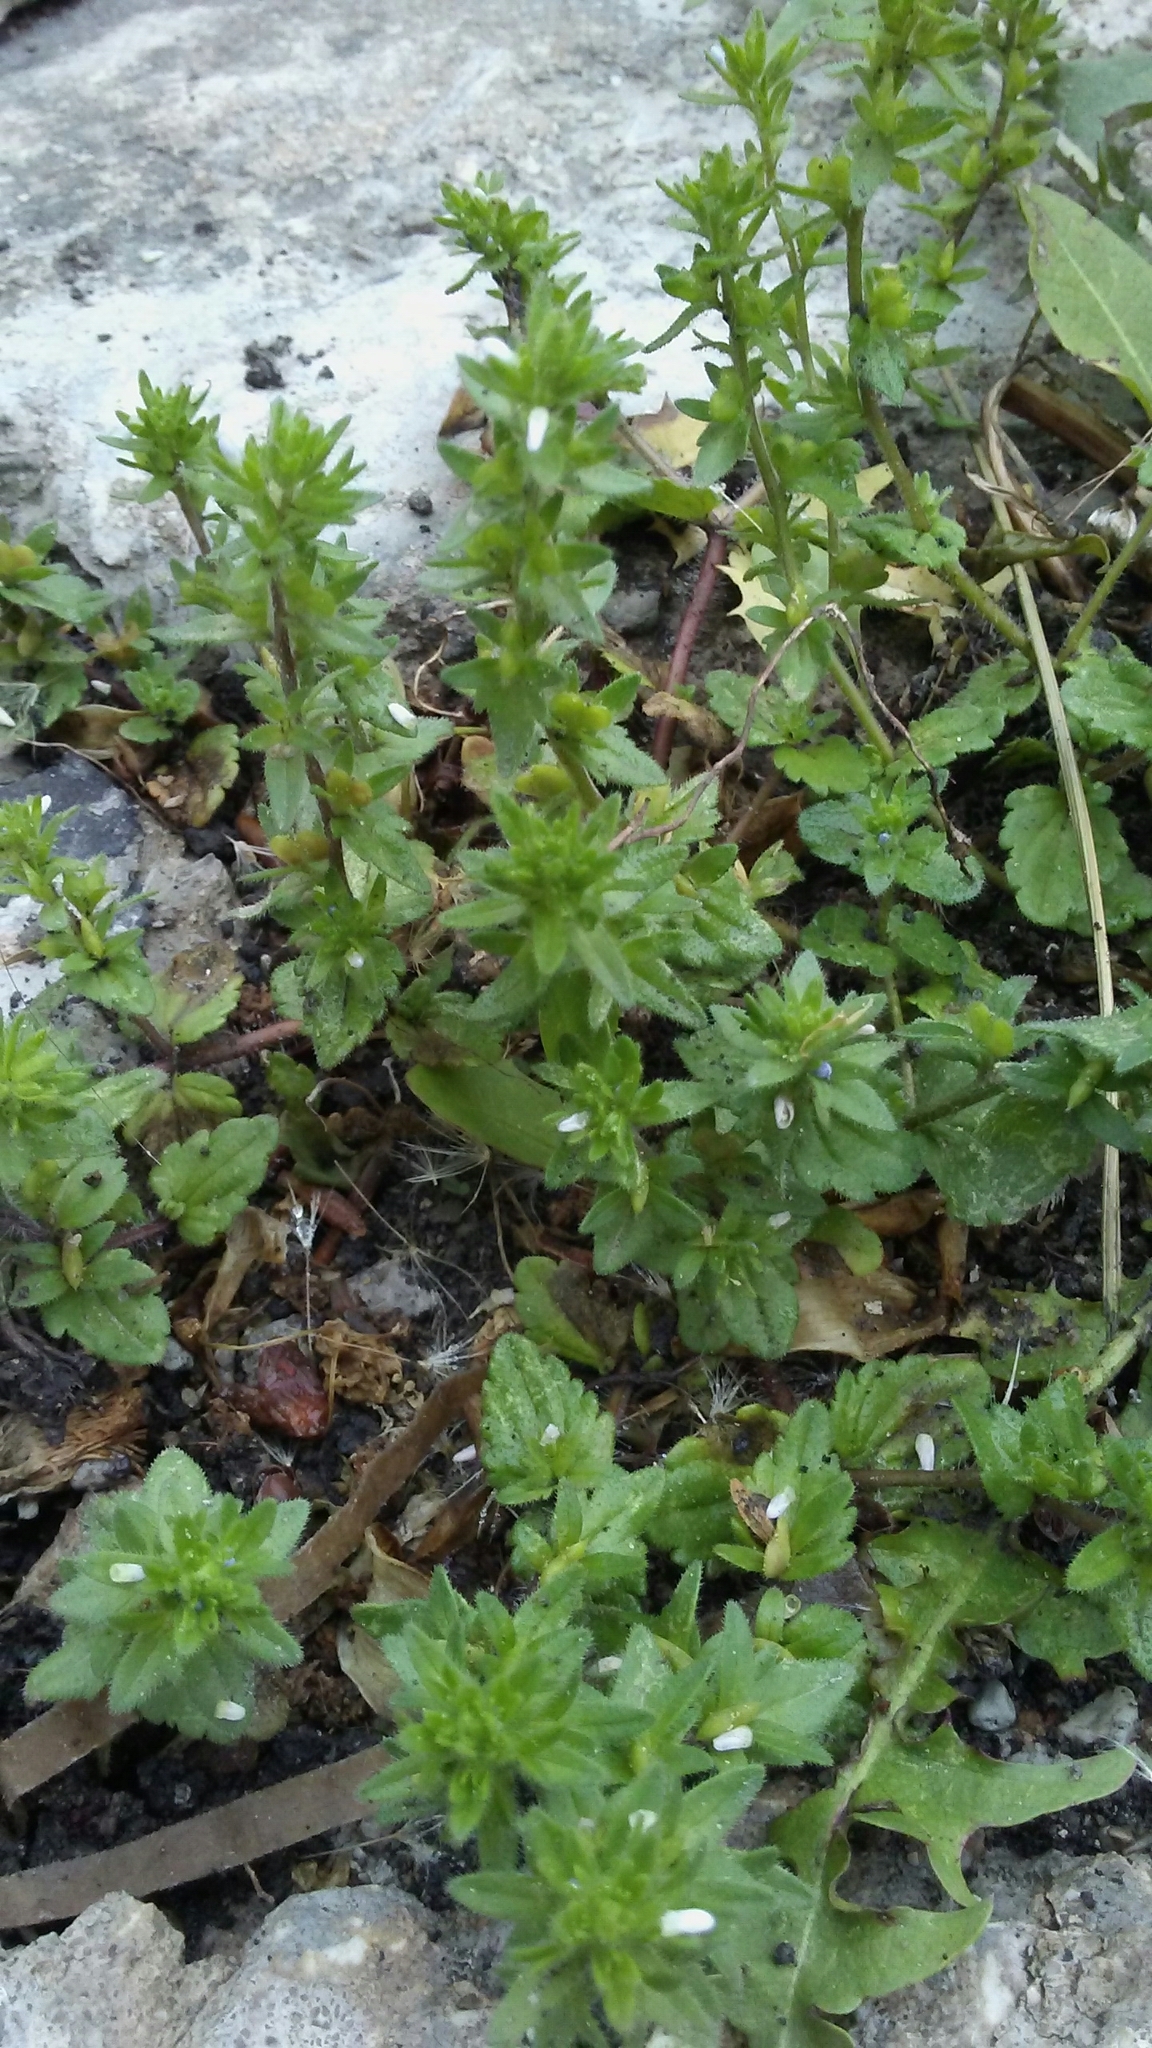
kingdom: Plantae
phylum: Tracheophyta
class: Magnoliopsida
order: Lamiales
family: Plantaginaceae
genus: Veronica
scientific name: Veronica arvensis
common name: Corn speedwell
